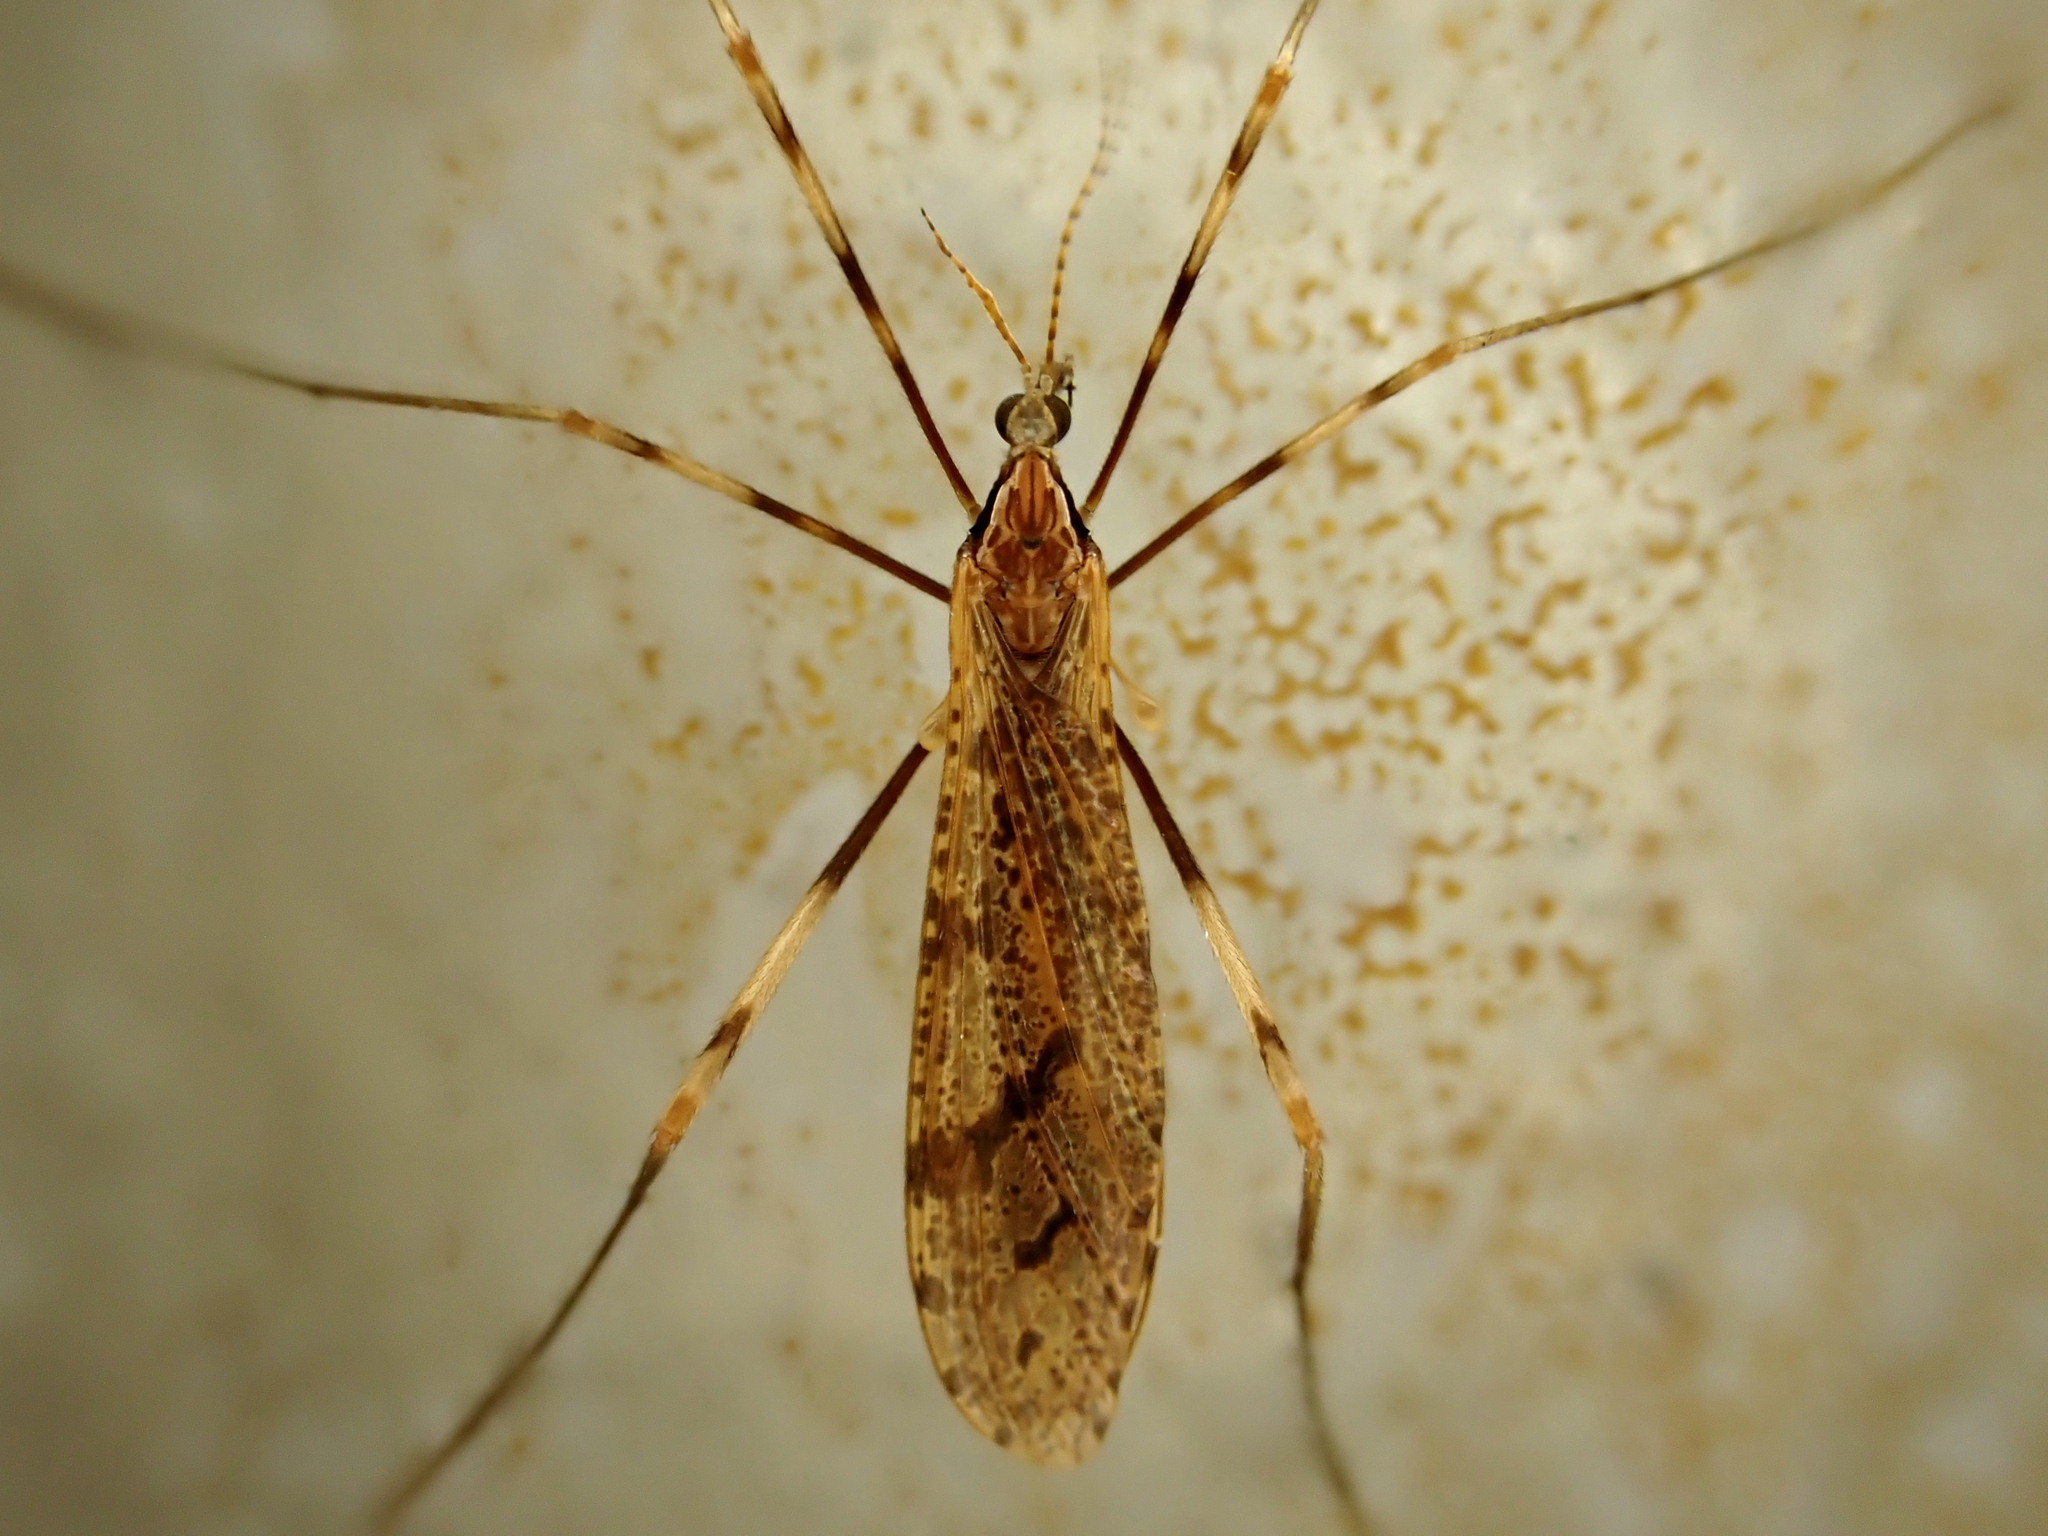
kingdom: Animalia
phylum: Arthropoda
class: Insecta
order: Diptera
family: Limoniidae
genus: Rhamphophila
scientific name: Rhamphophila sinistra
